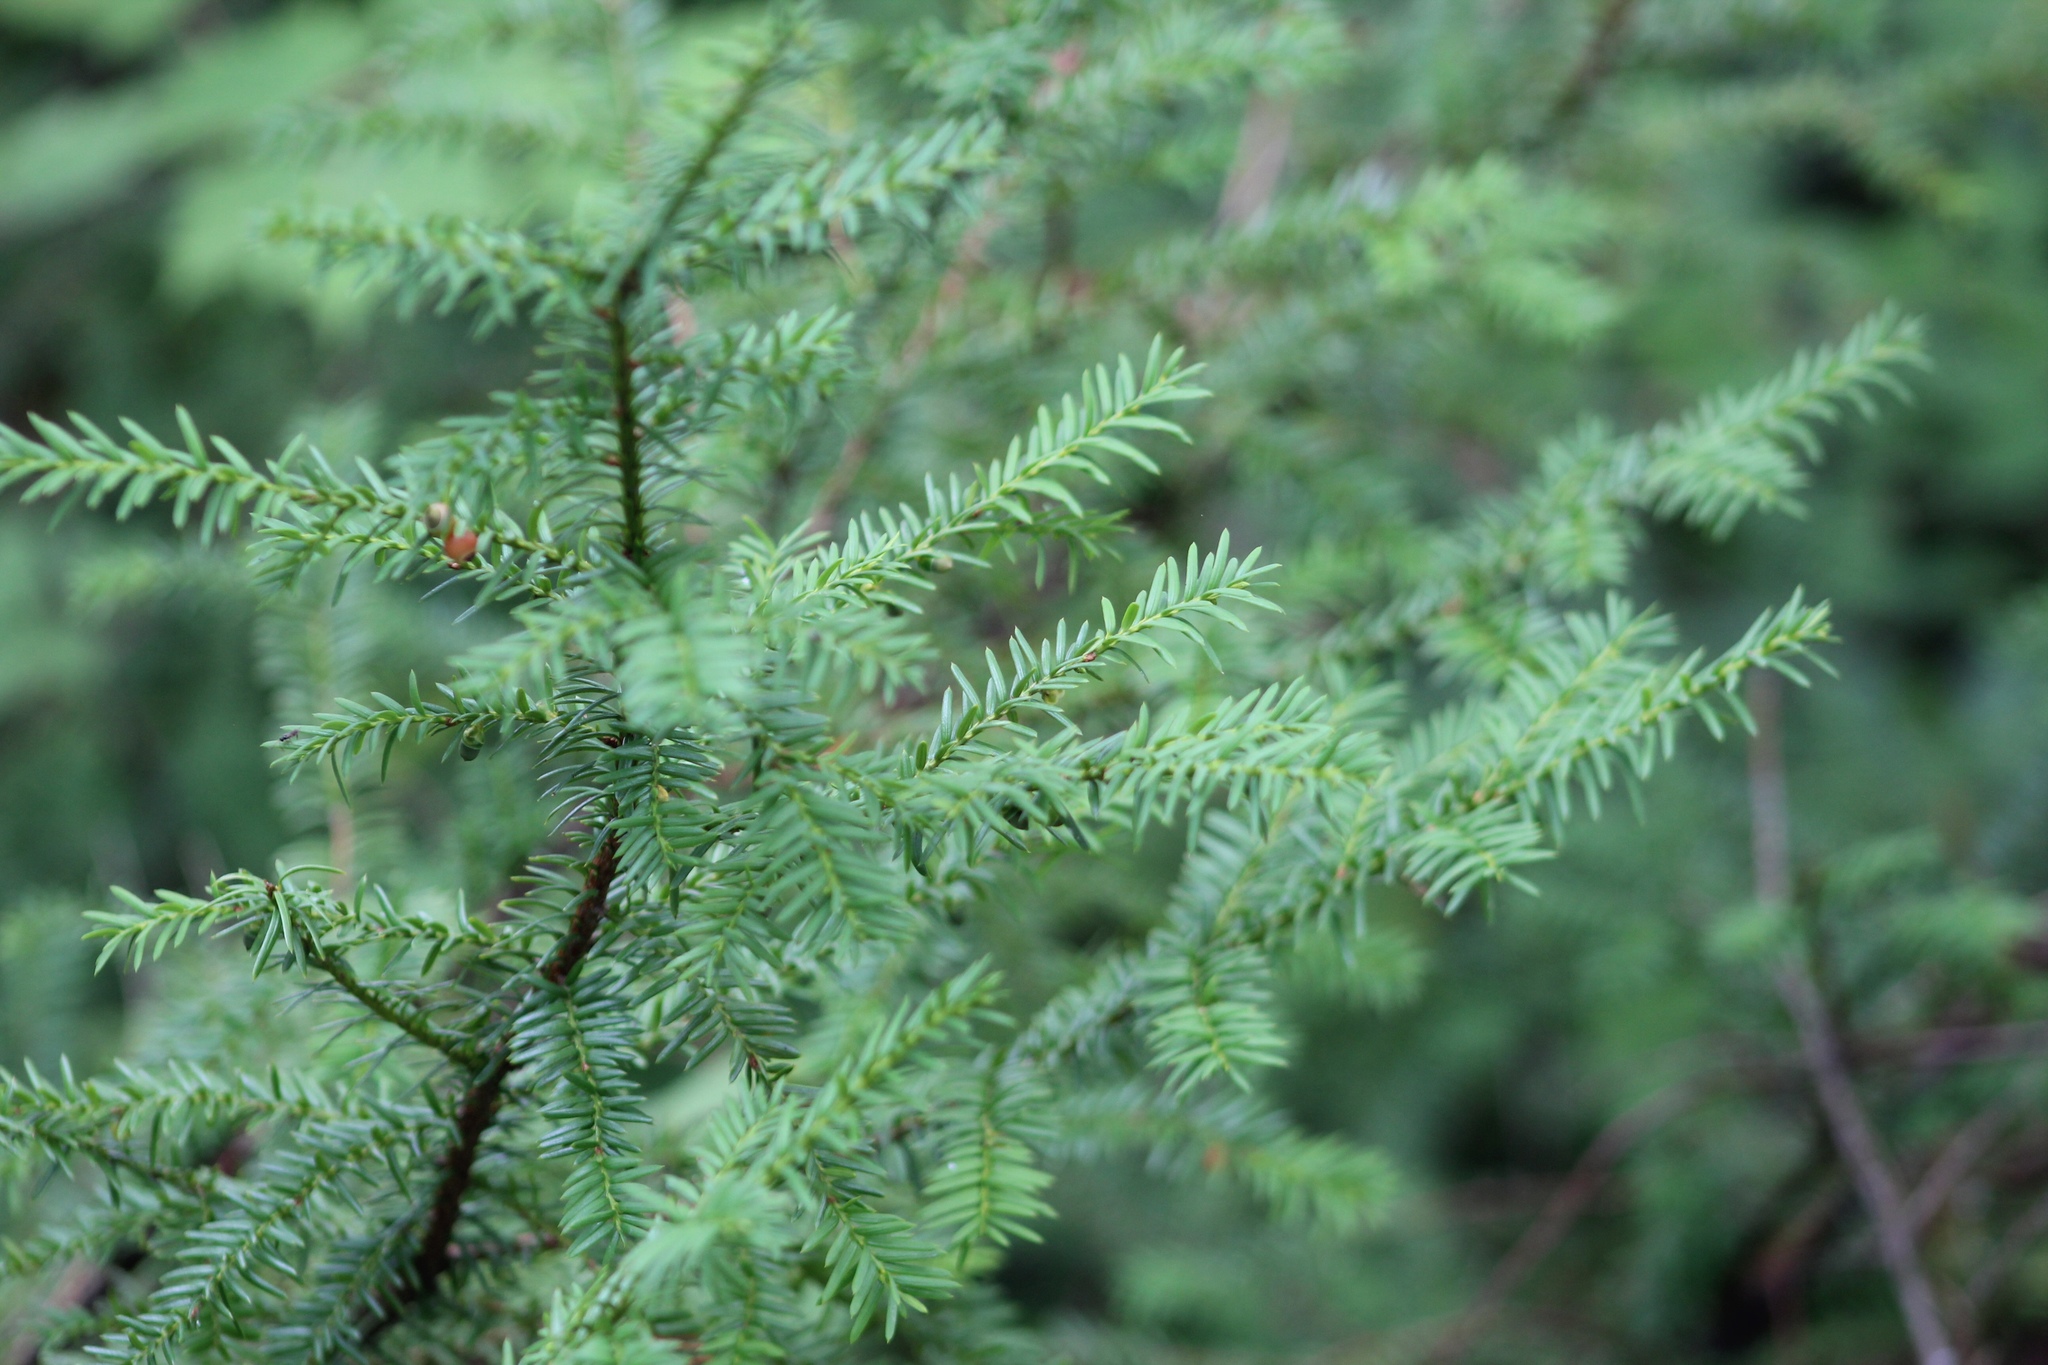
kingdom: Plantae
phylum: Tracheophyta
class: Pinopsida
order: Pinales
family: Taxaceae
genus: Taxus
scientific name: Taxus canadensis
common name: American yew
